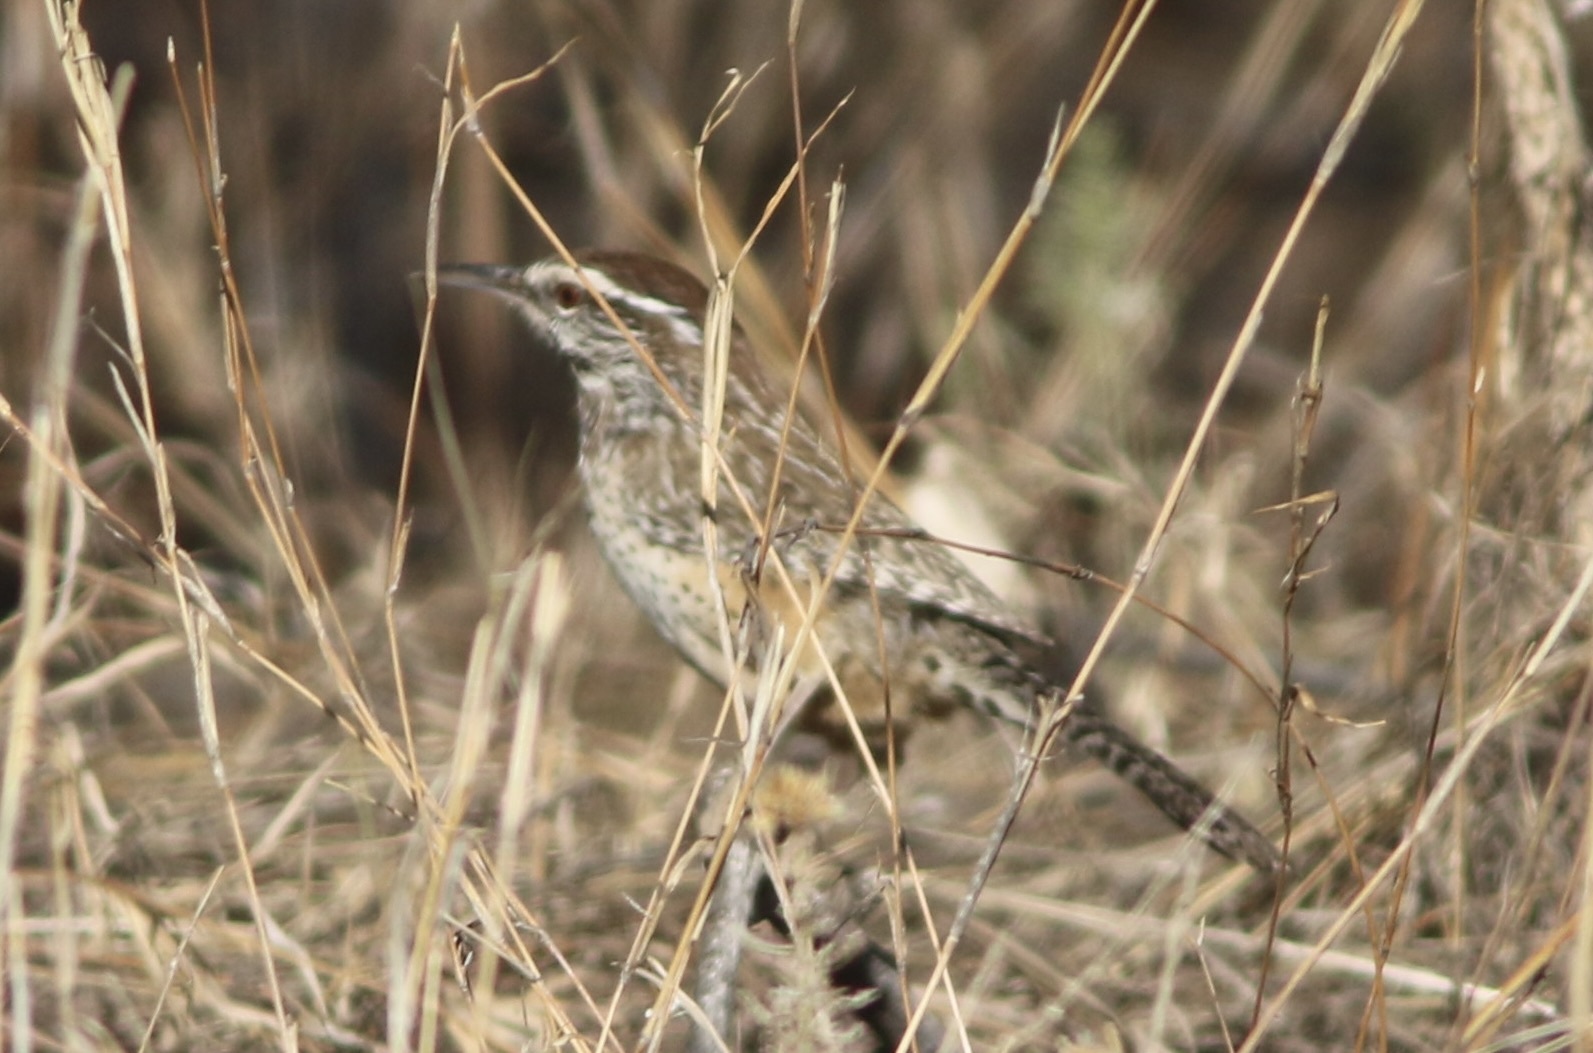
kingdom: Animalia
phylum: Chordata
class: Aves
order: Passeriformes
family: Troglodytidae
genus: Campylorhynchus
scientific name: Campylorhynchus brunneicapillus
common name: Cactus wren
